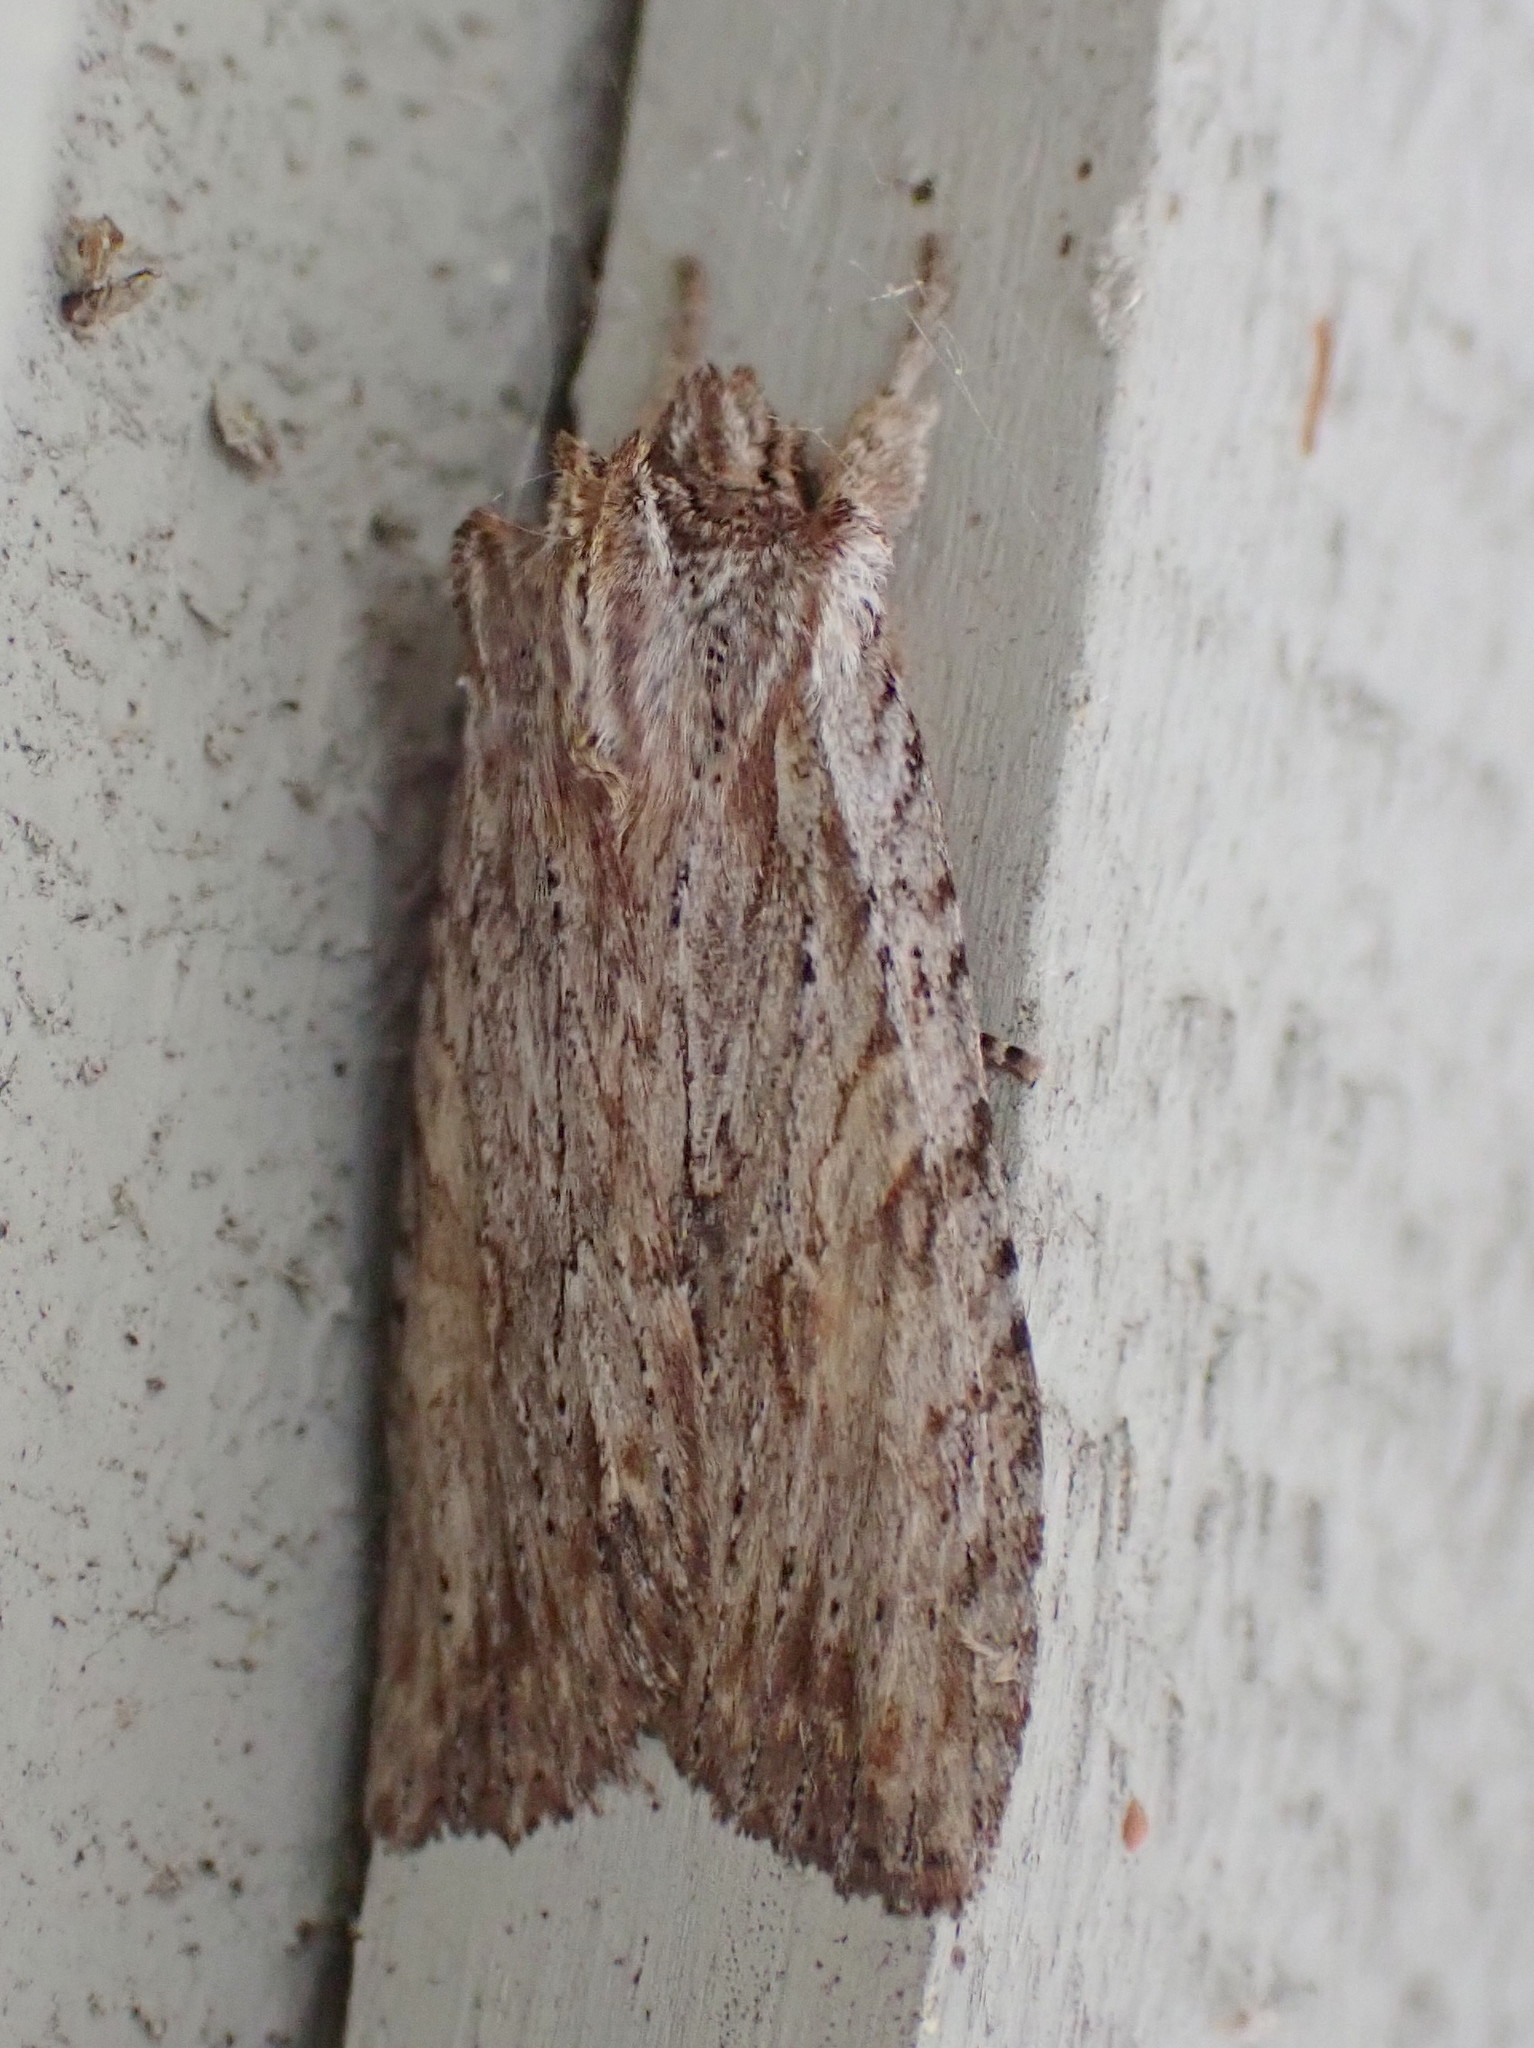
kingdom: Animalia
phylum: Arthropoda
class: Insecta
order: Lepidoptera
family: Noctuidae
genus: Lithophane
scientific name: Lithophane petulca
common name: Wanton pinion
